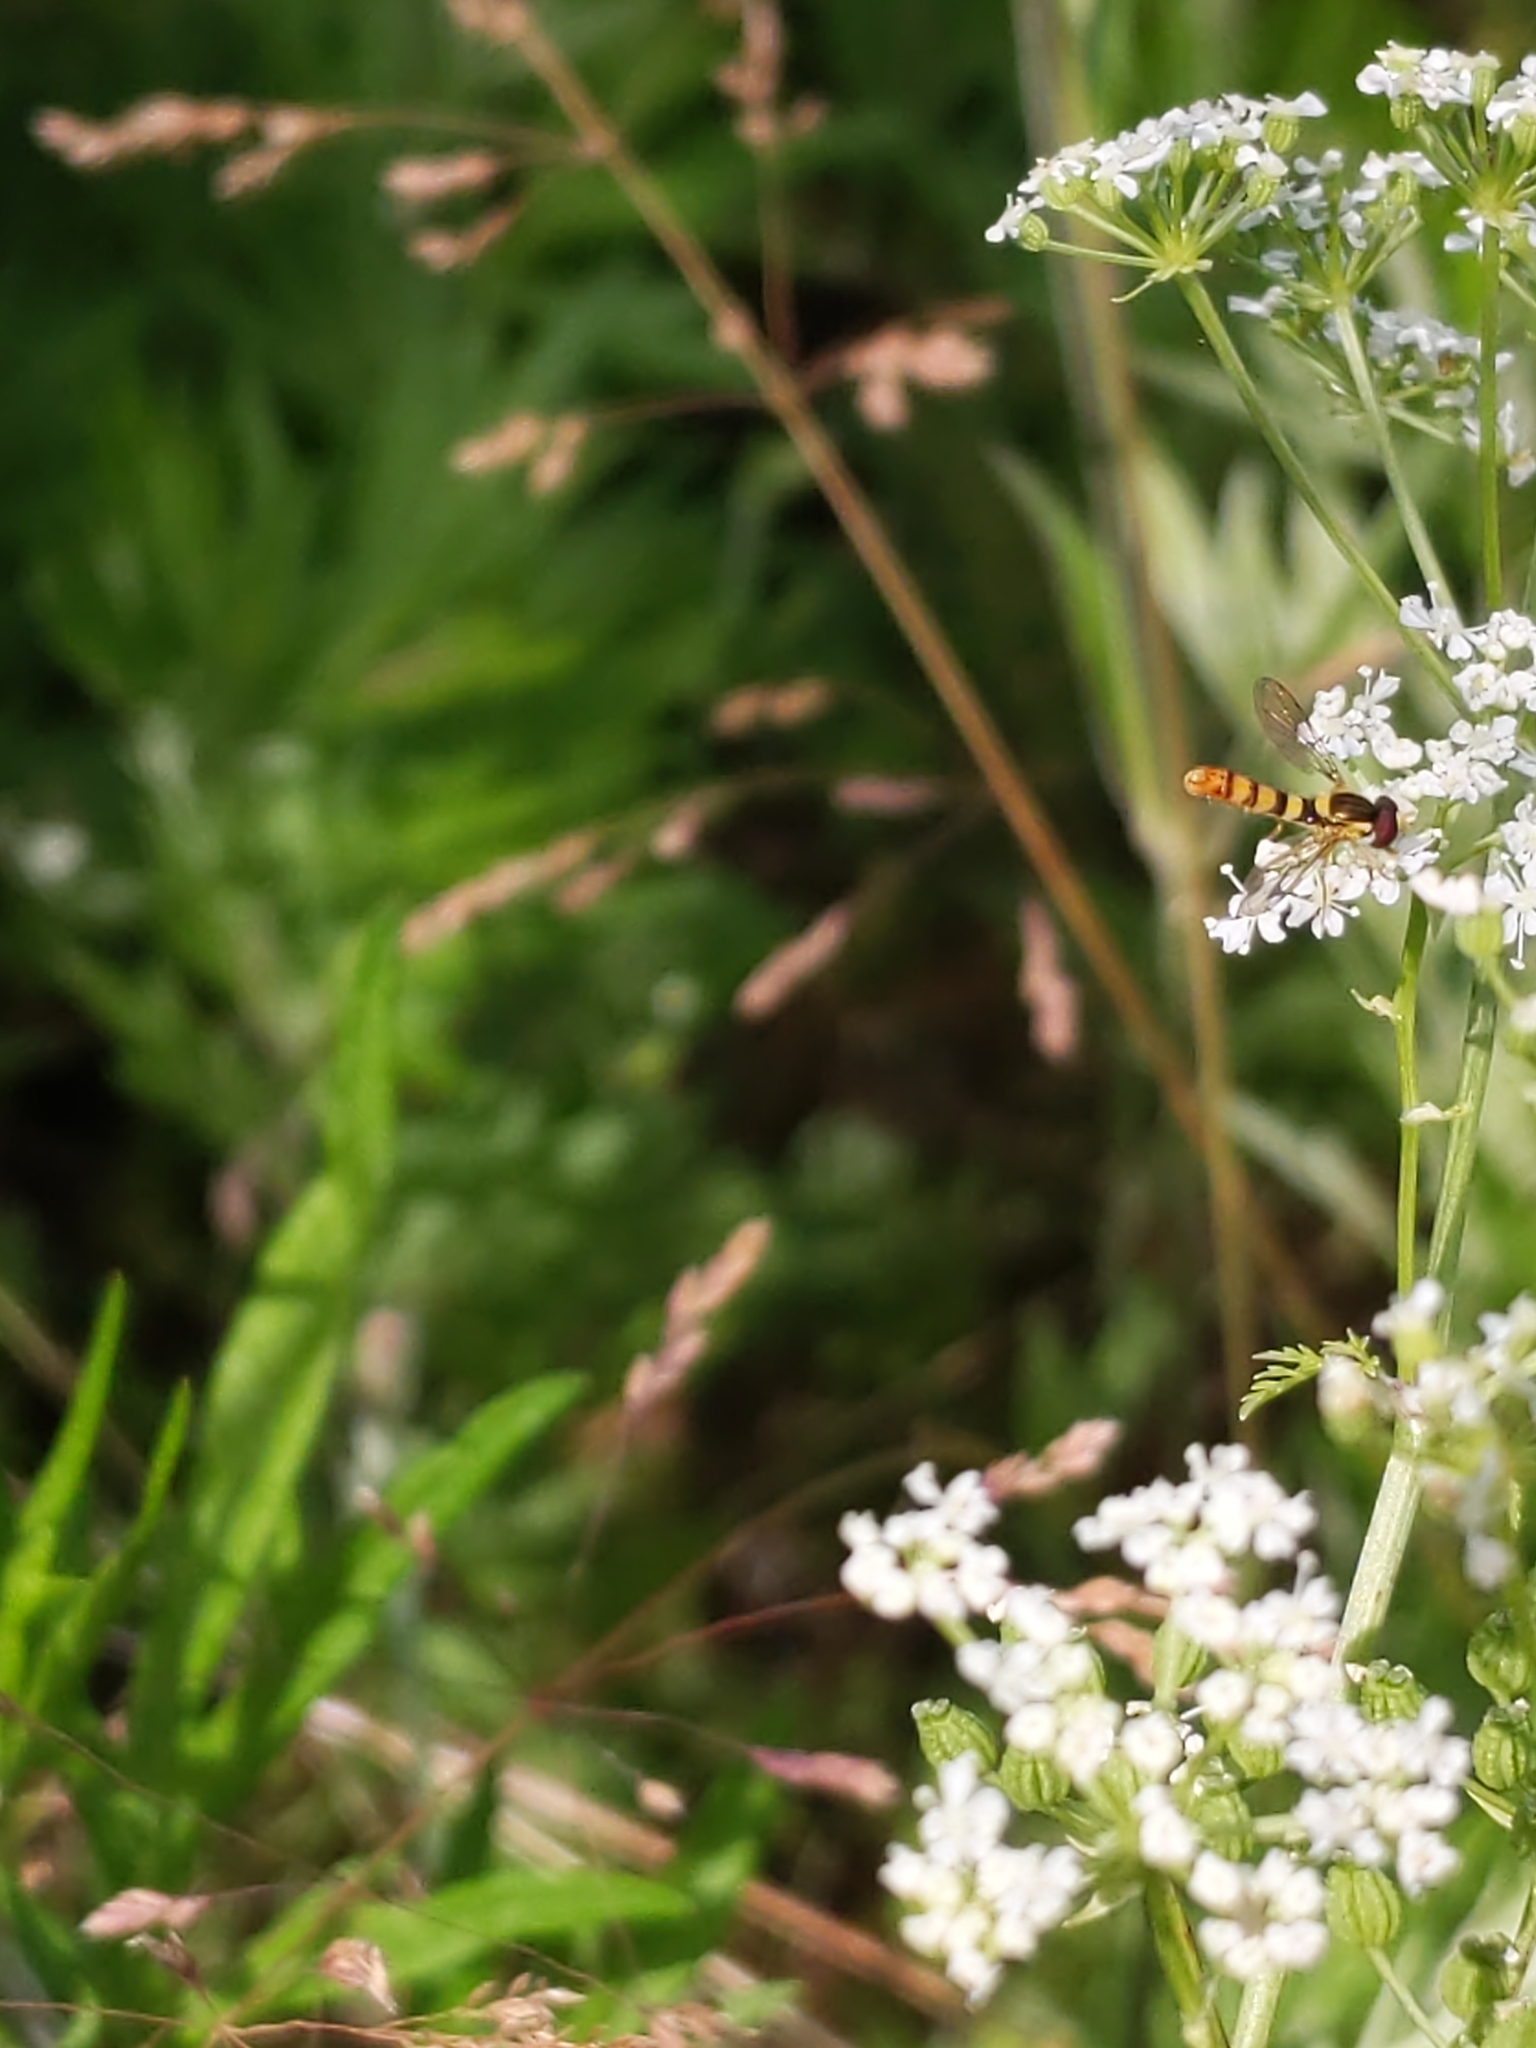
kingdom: Animalia
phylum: Arthropoda
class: Insecta
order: Diptera
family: Syrphidae
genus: Sphaerophoria
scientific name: Sphaerophoria
